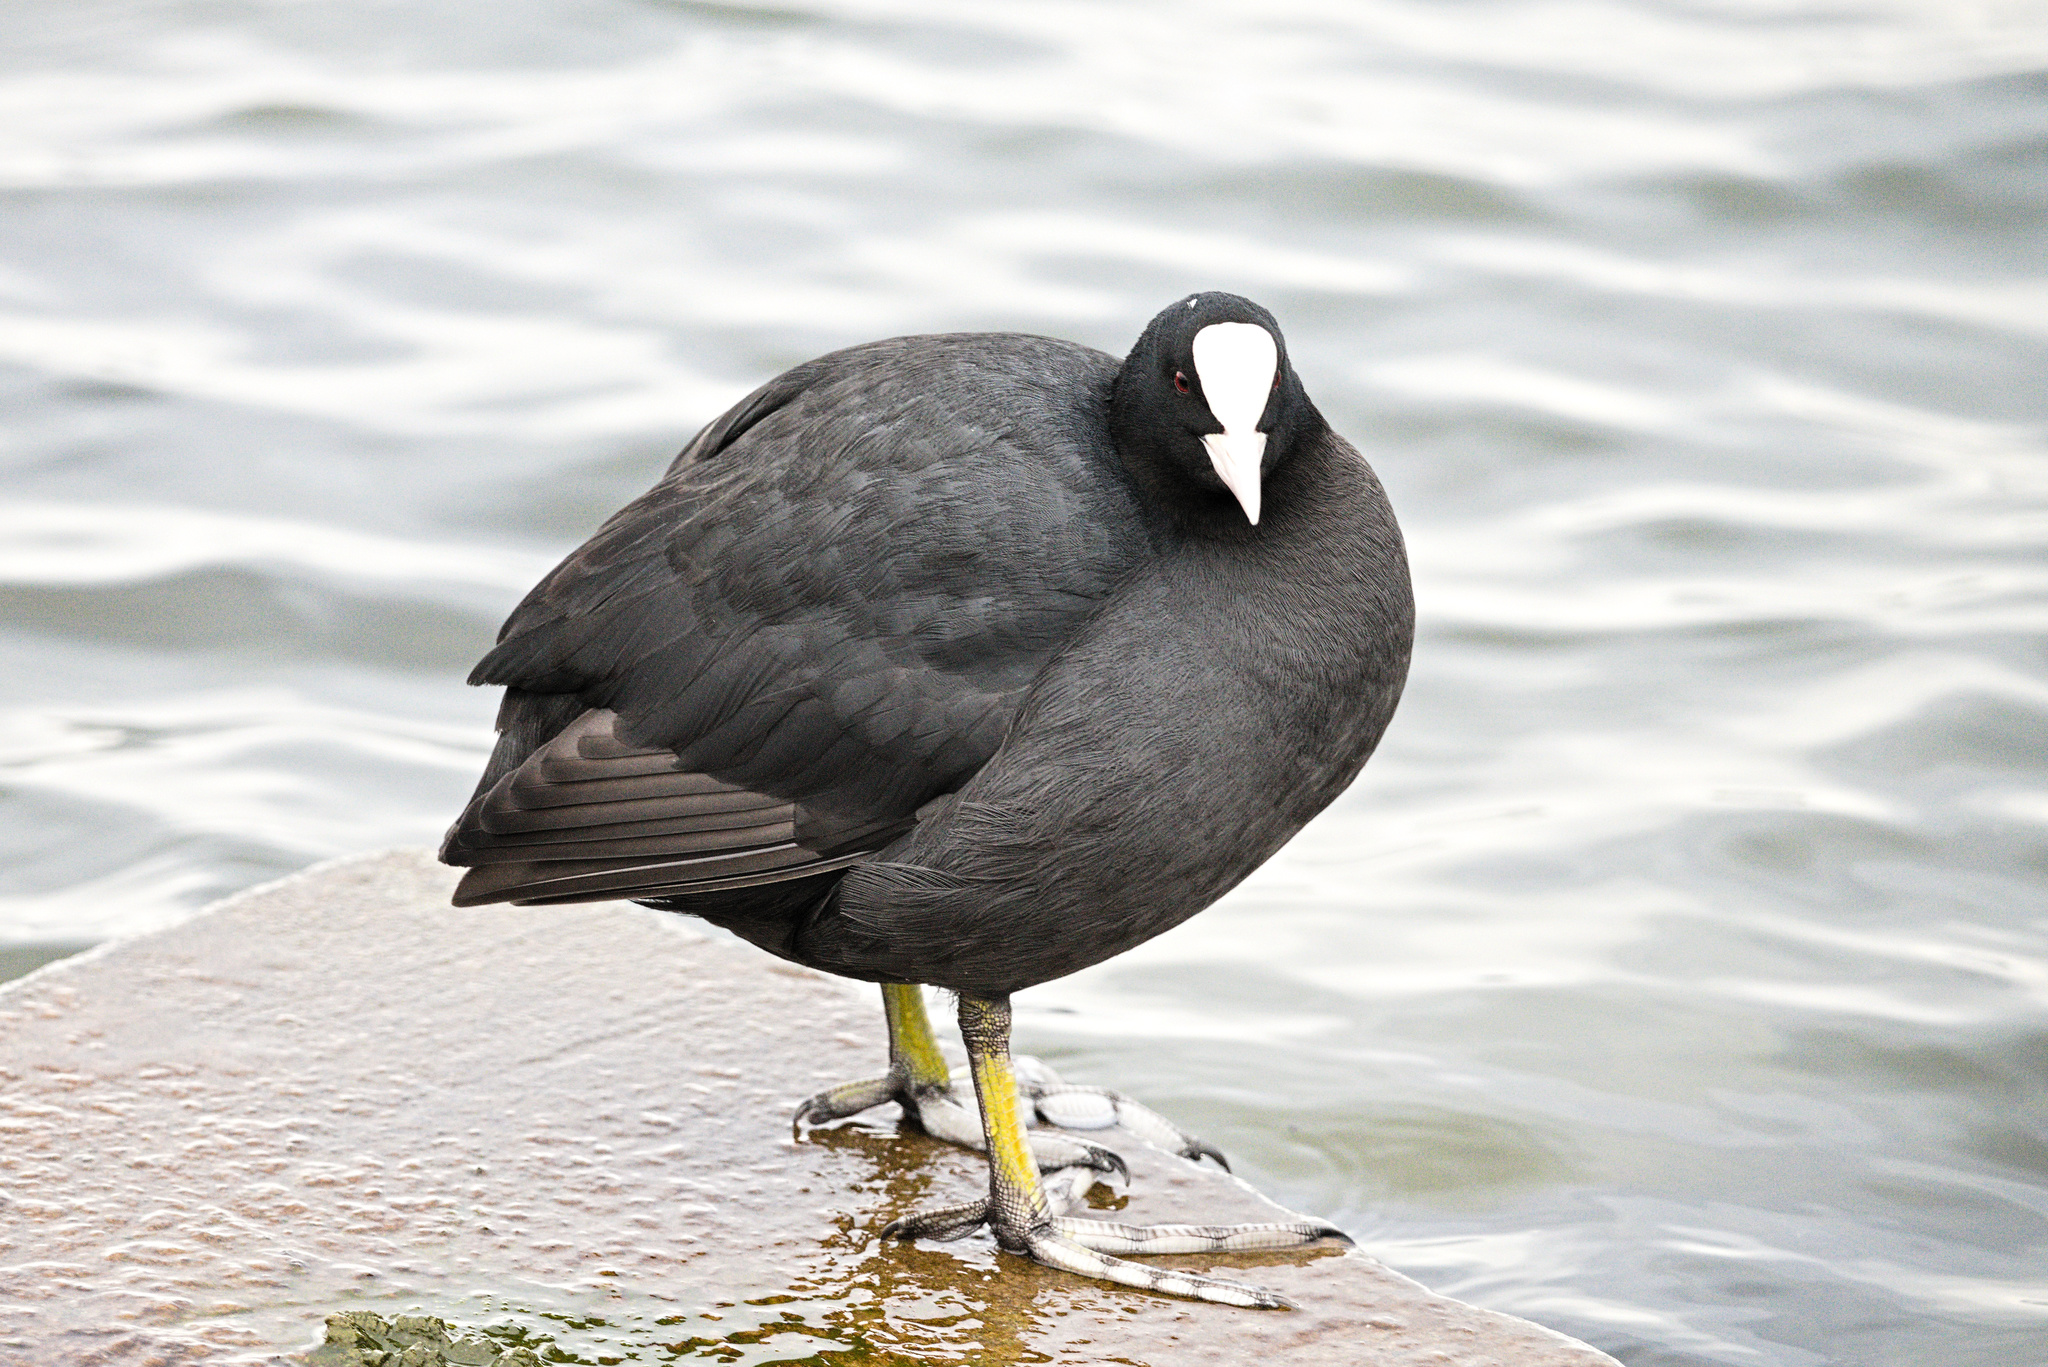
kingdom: Animalia
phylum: Chordata
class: Aves
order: Gruiformes
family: Rallidae
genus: Fulica
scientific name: Fulica atra
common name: Eurasian coot
